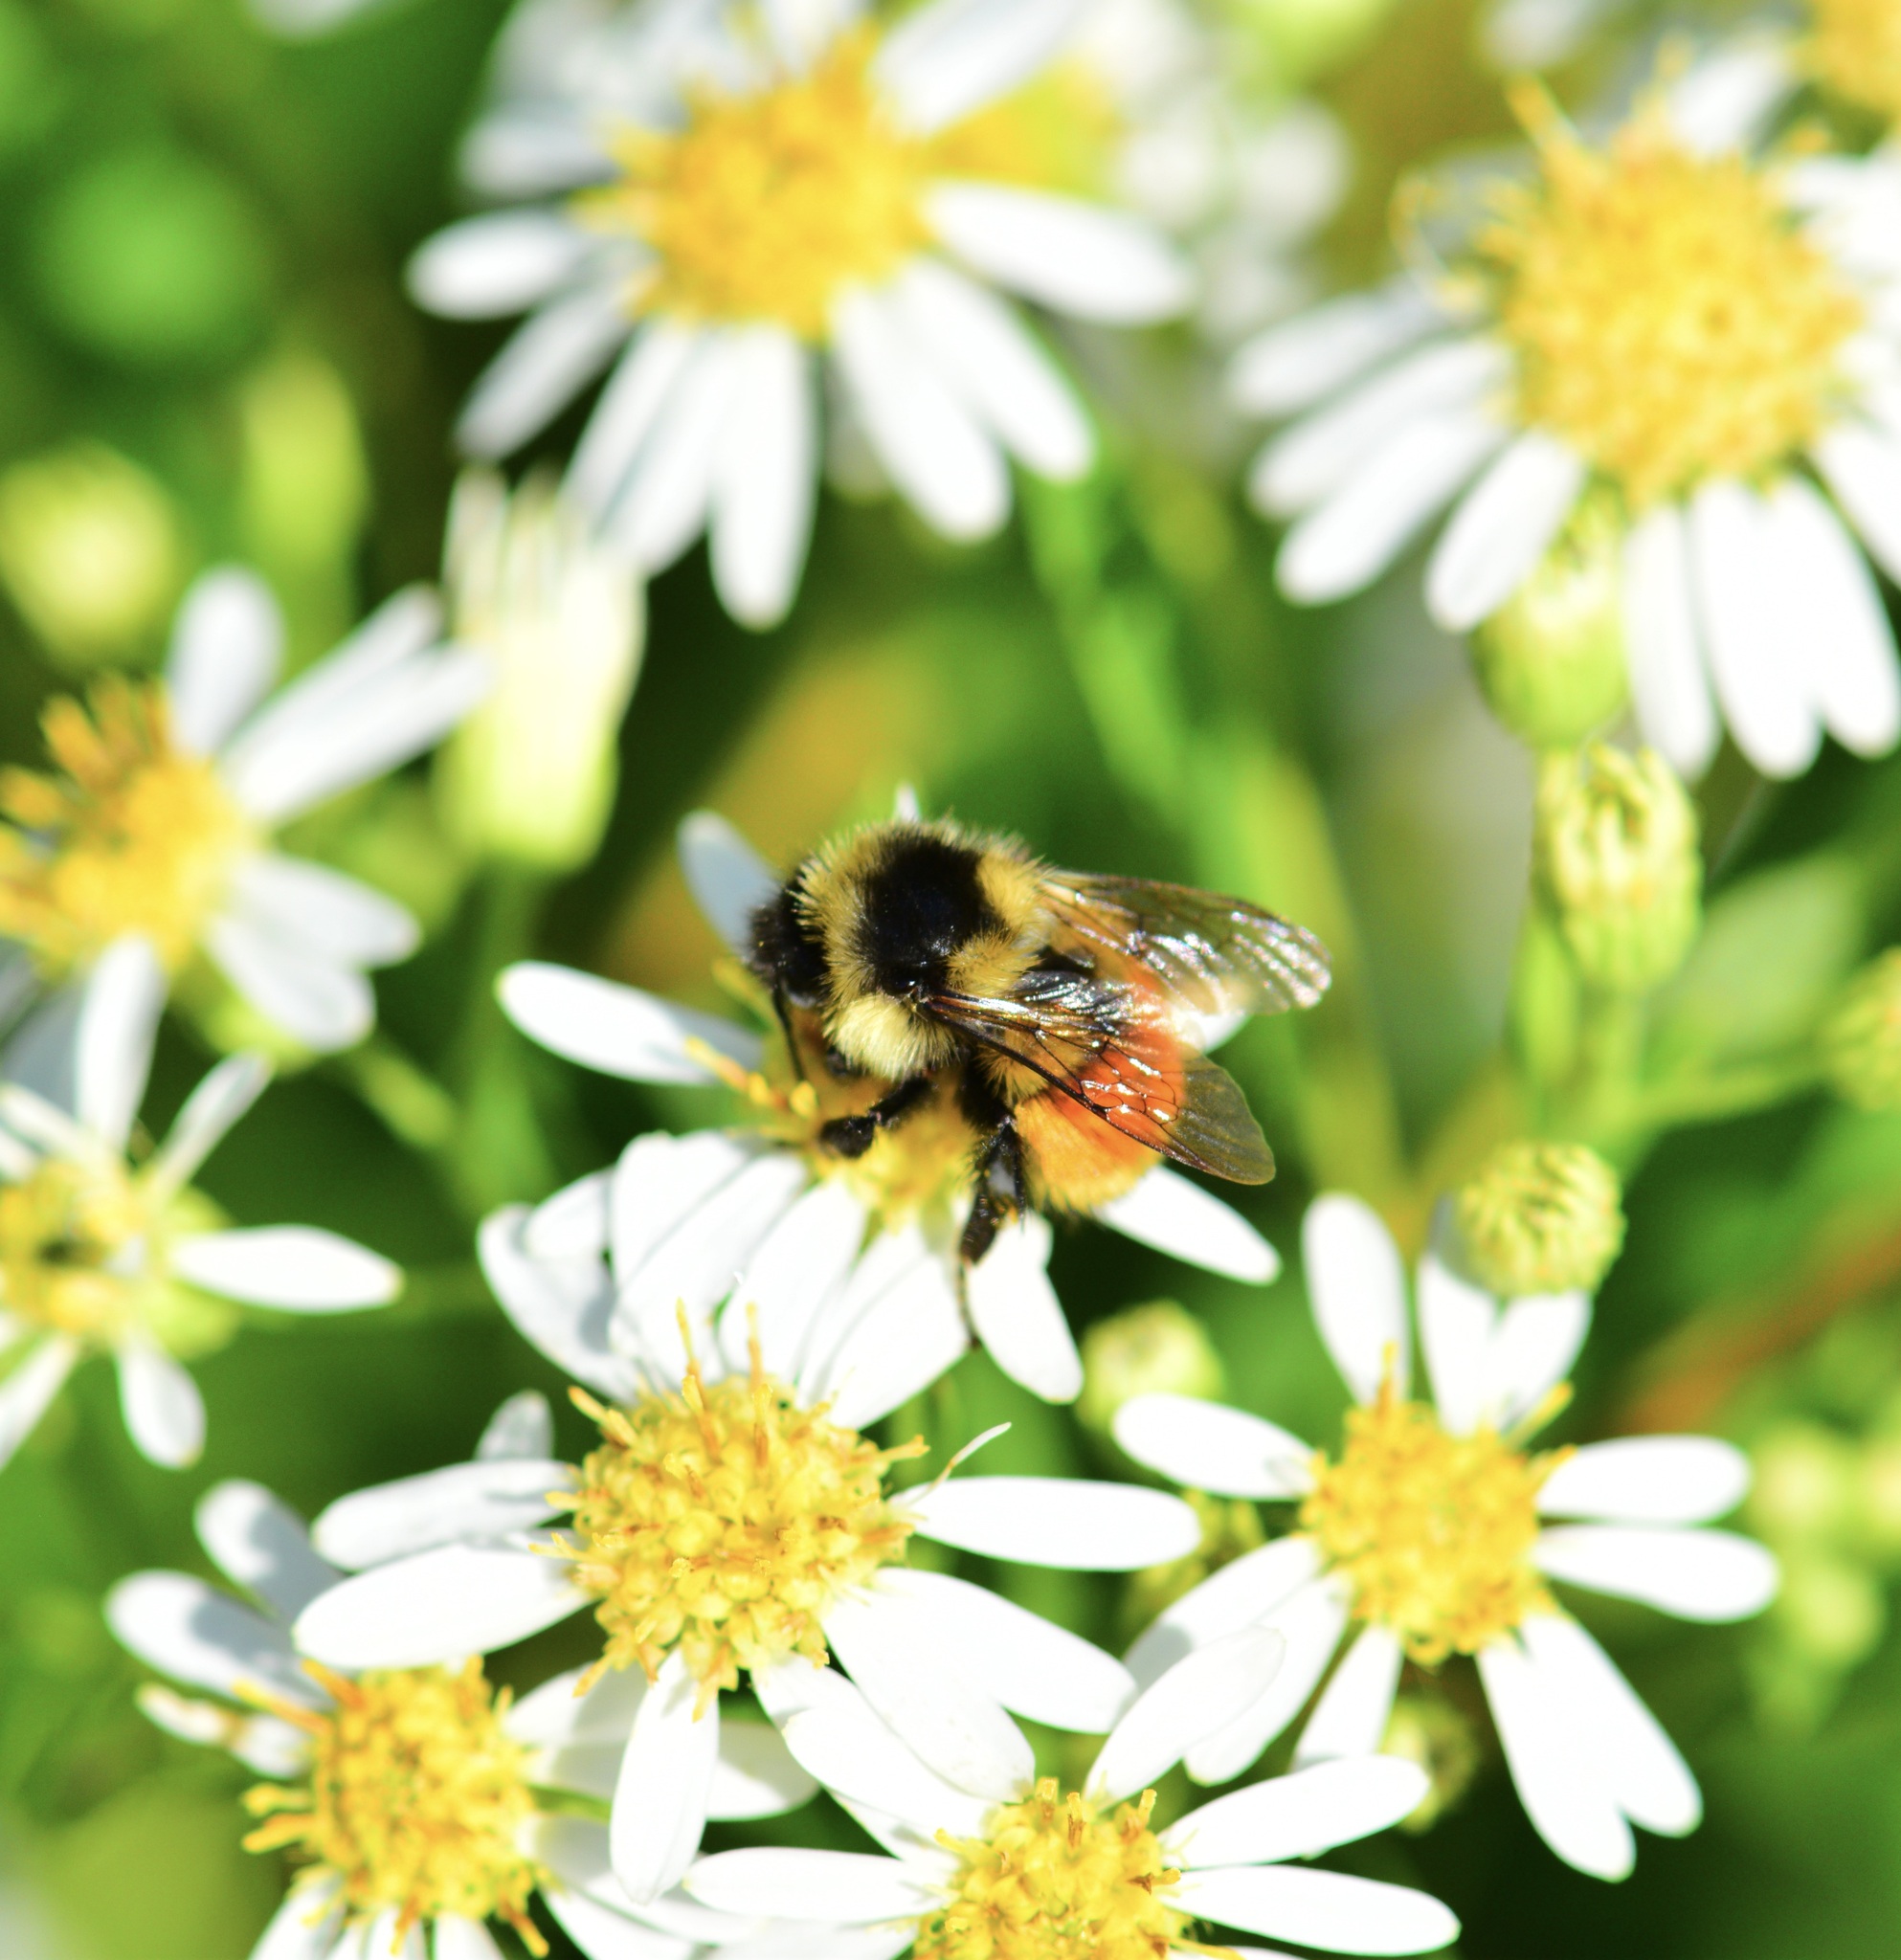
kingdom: Animalia
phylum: Arthropoda
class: Insecta
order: Hymenoptera
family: Apidae
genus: Bombus
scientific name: Bombus ternarius
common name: Tri-colored bumble bee
